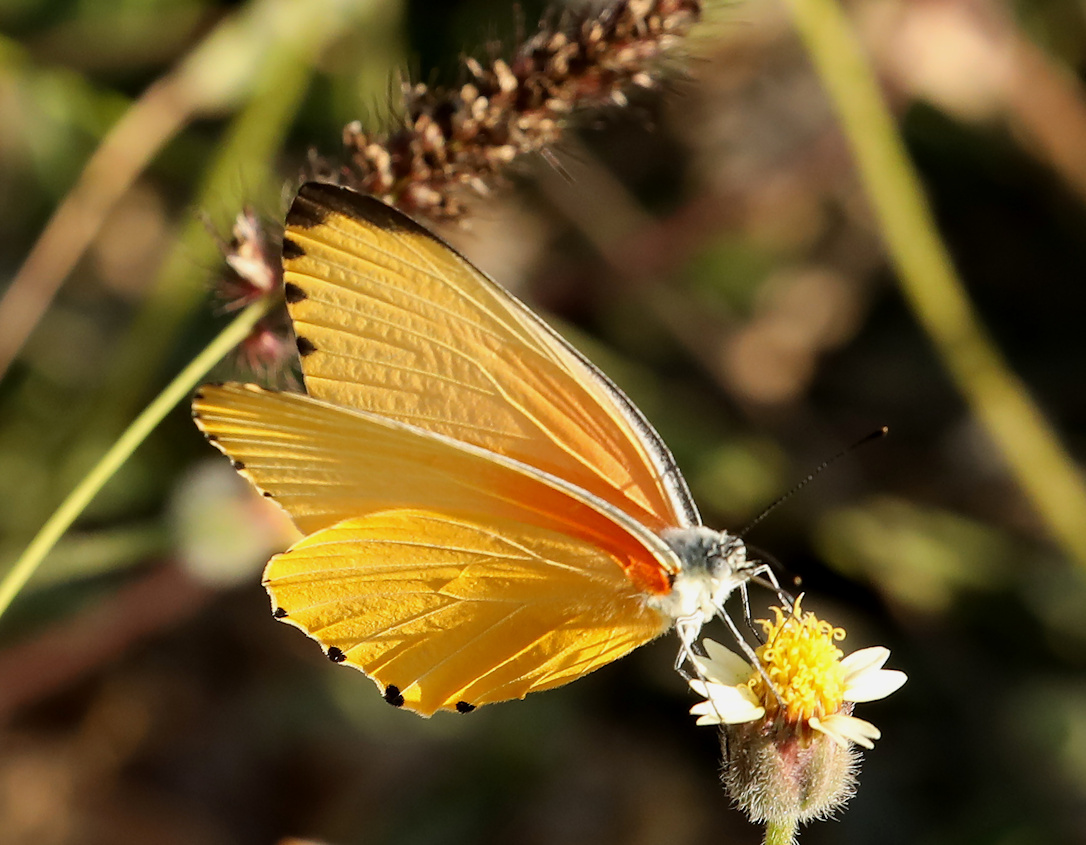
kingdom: Animalia
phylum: Arthropoda
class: Insecta
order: Lepidoptera
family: Pieridae
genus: Mylothris
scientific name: Mylothris agathina
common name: Eastern dotted border
